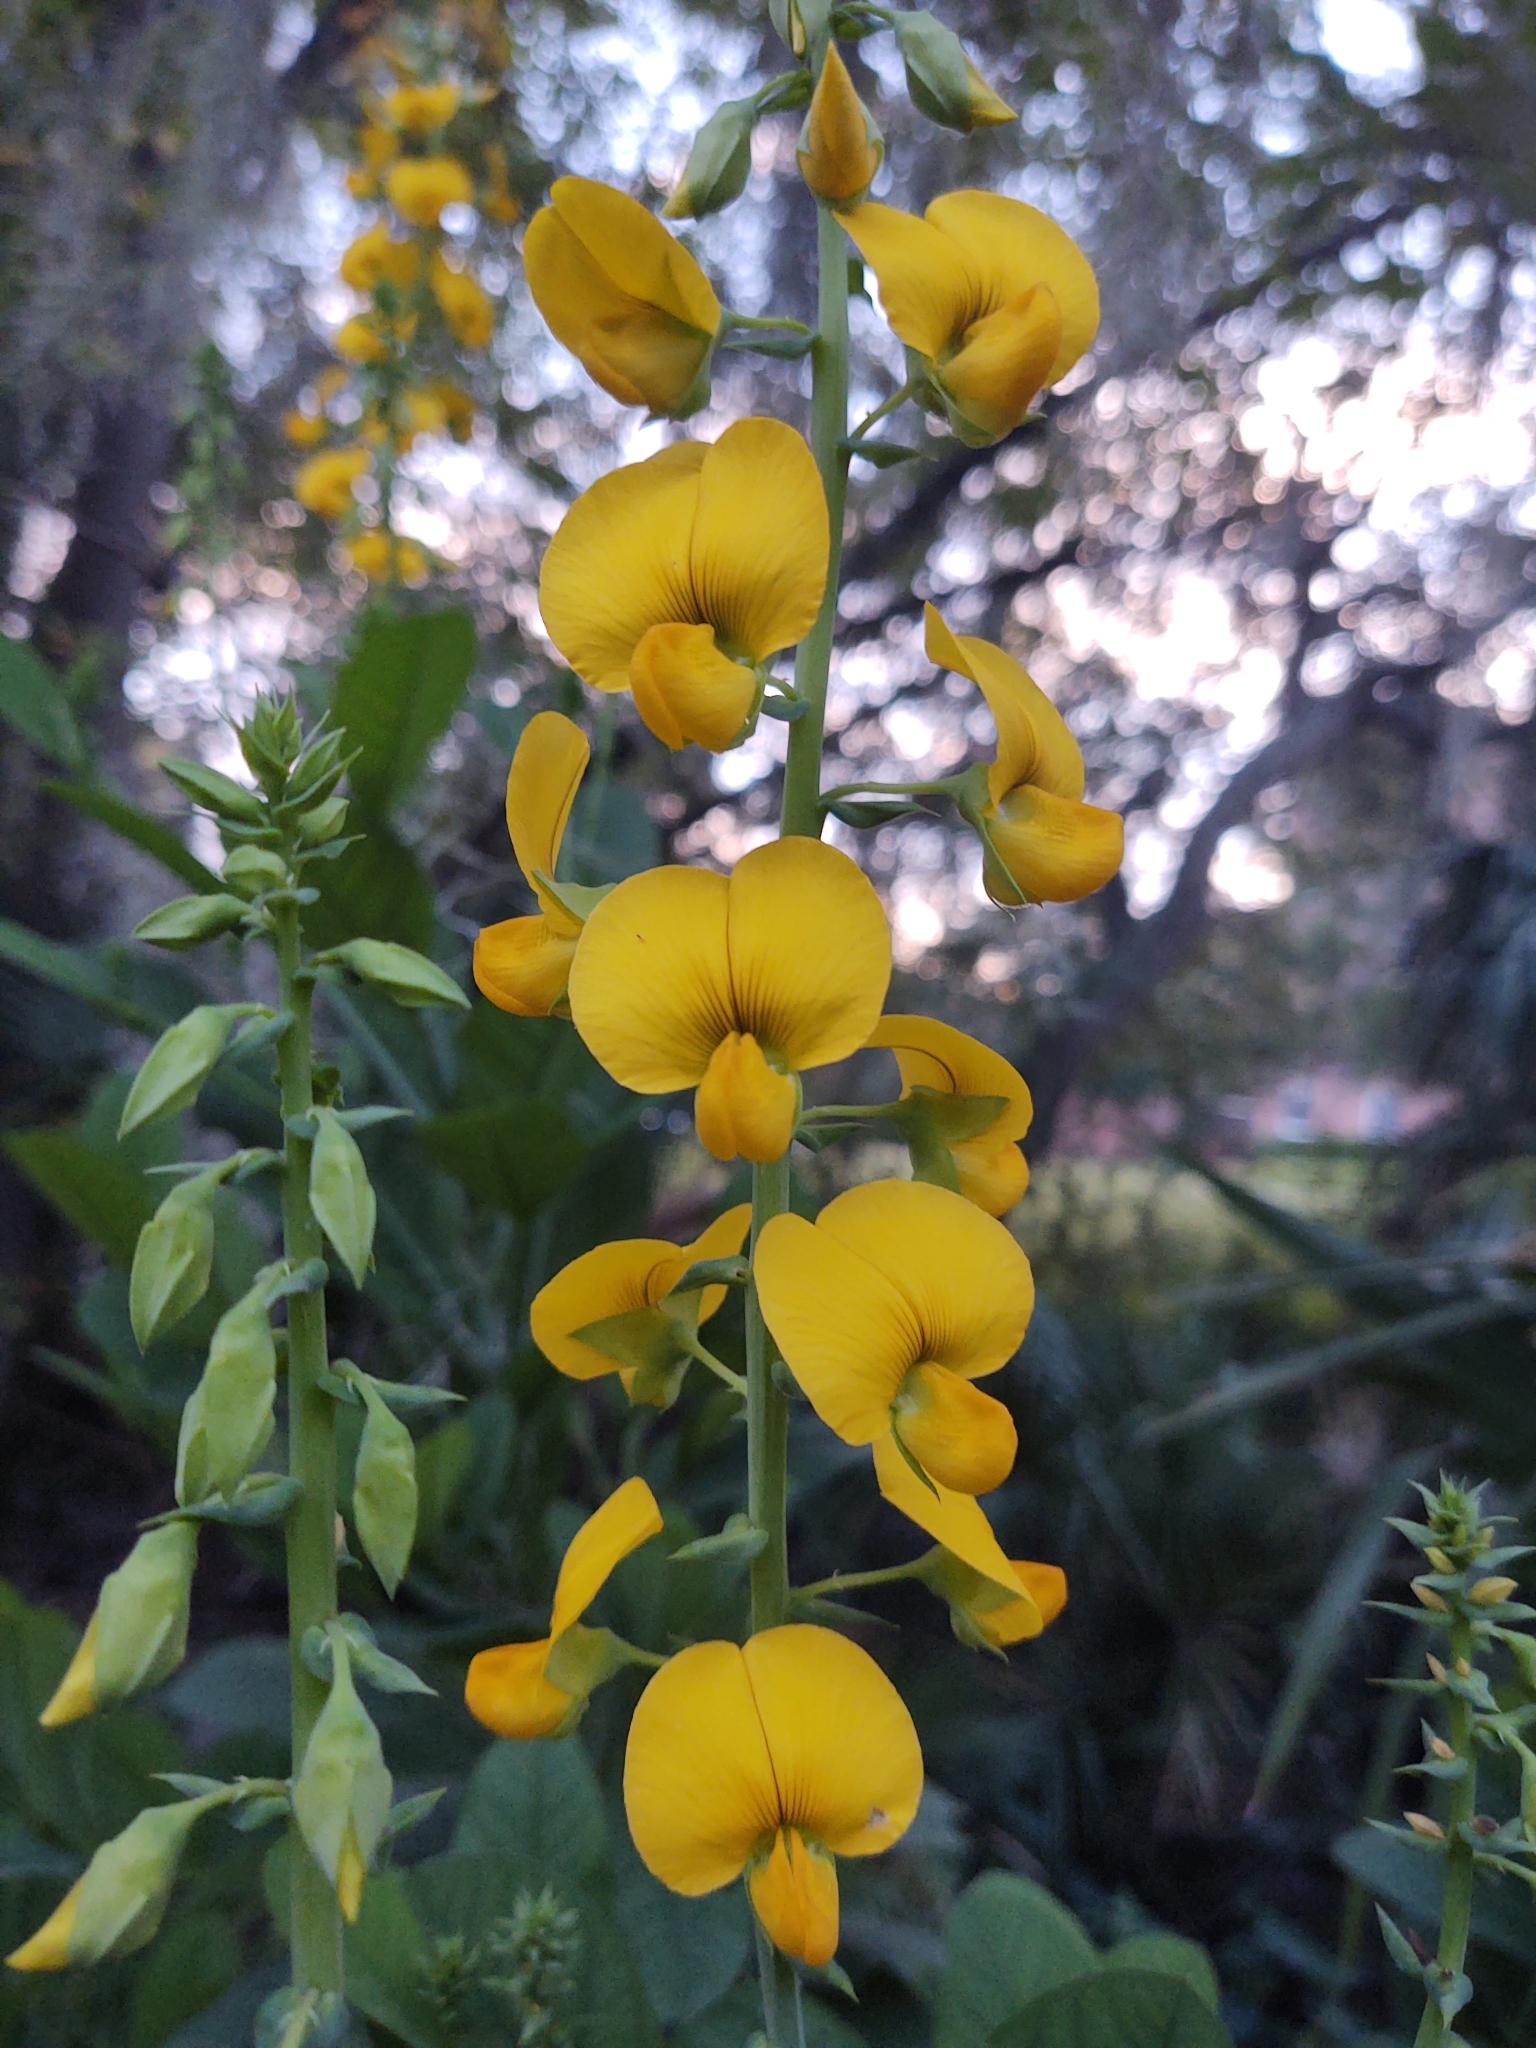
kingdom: Plantae
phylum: Tracheophyta
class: Magnoliopsida
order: Fabales
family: Fabaceae
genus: Crotalaria
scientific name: Crotalaria spectabilis
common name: Showy rattlebox
